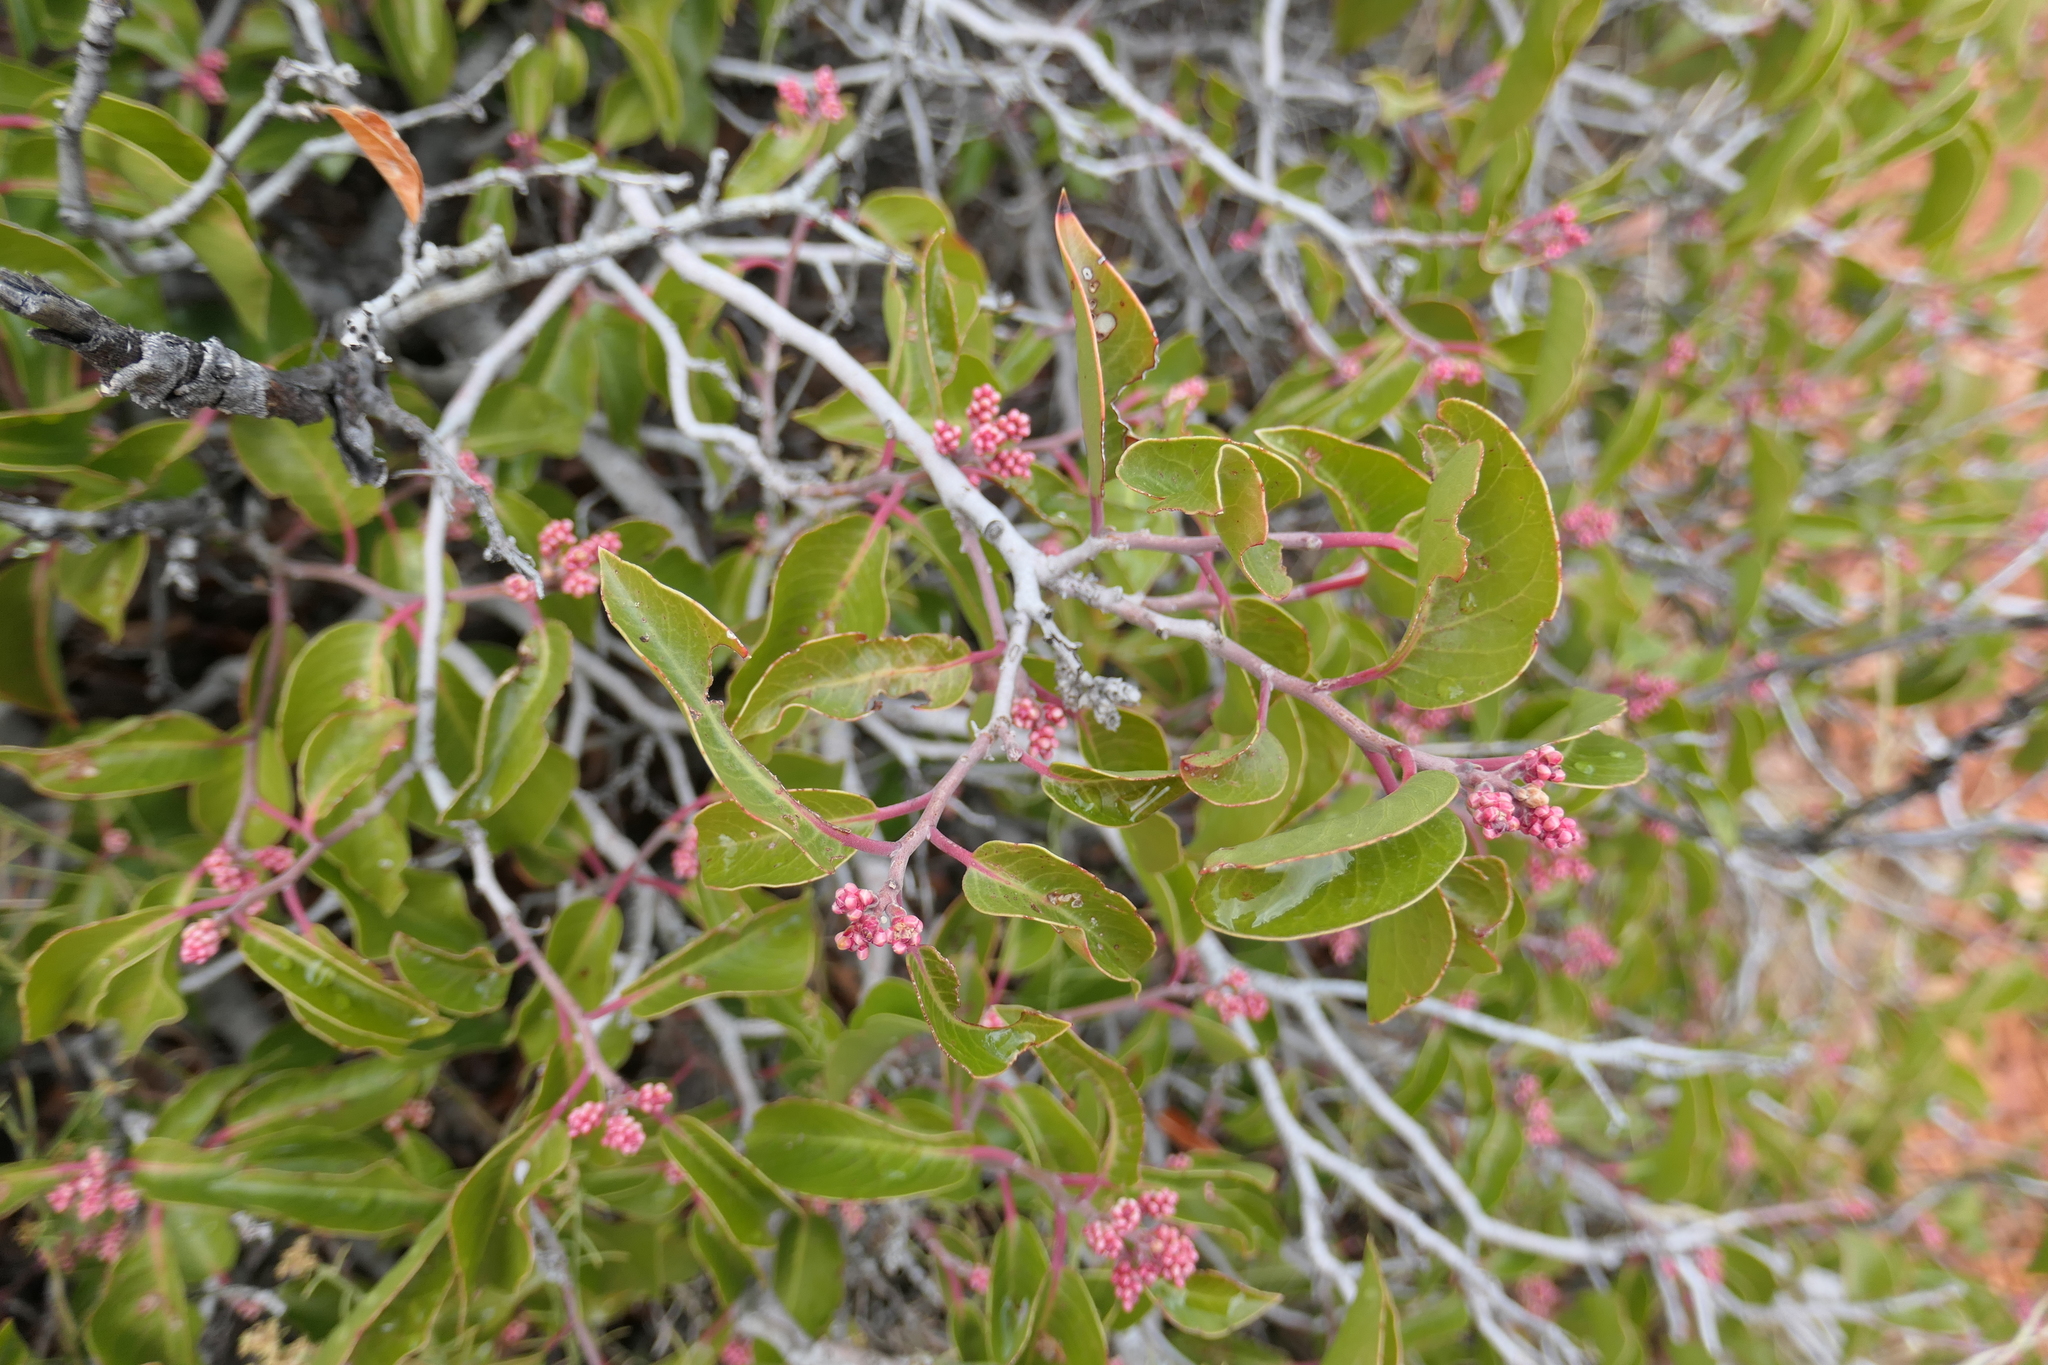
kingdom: Plantae
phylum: Tracheophyta
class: Magnoliopsida
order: Sapindales
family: Anacardiaceae
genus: Rhus
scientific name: Rhus ovata
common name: Sugar sumac
